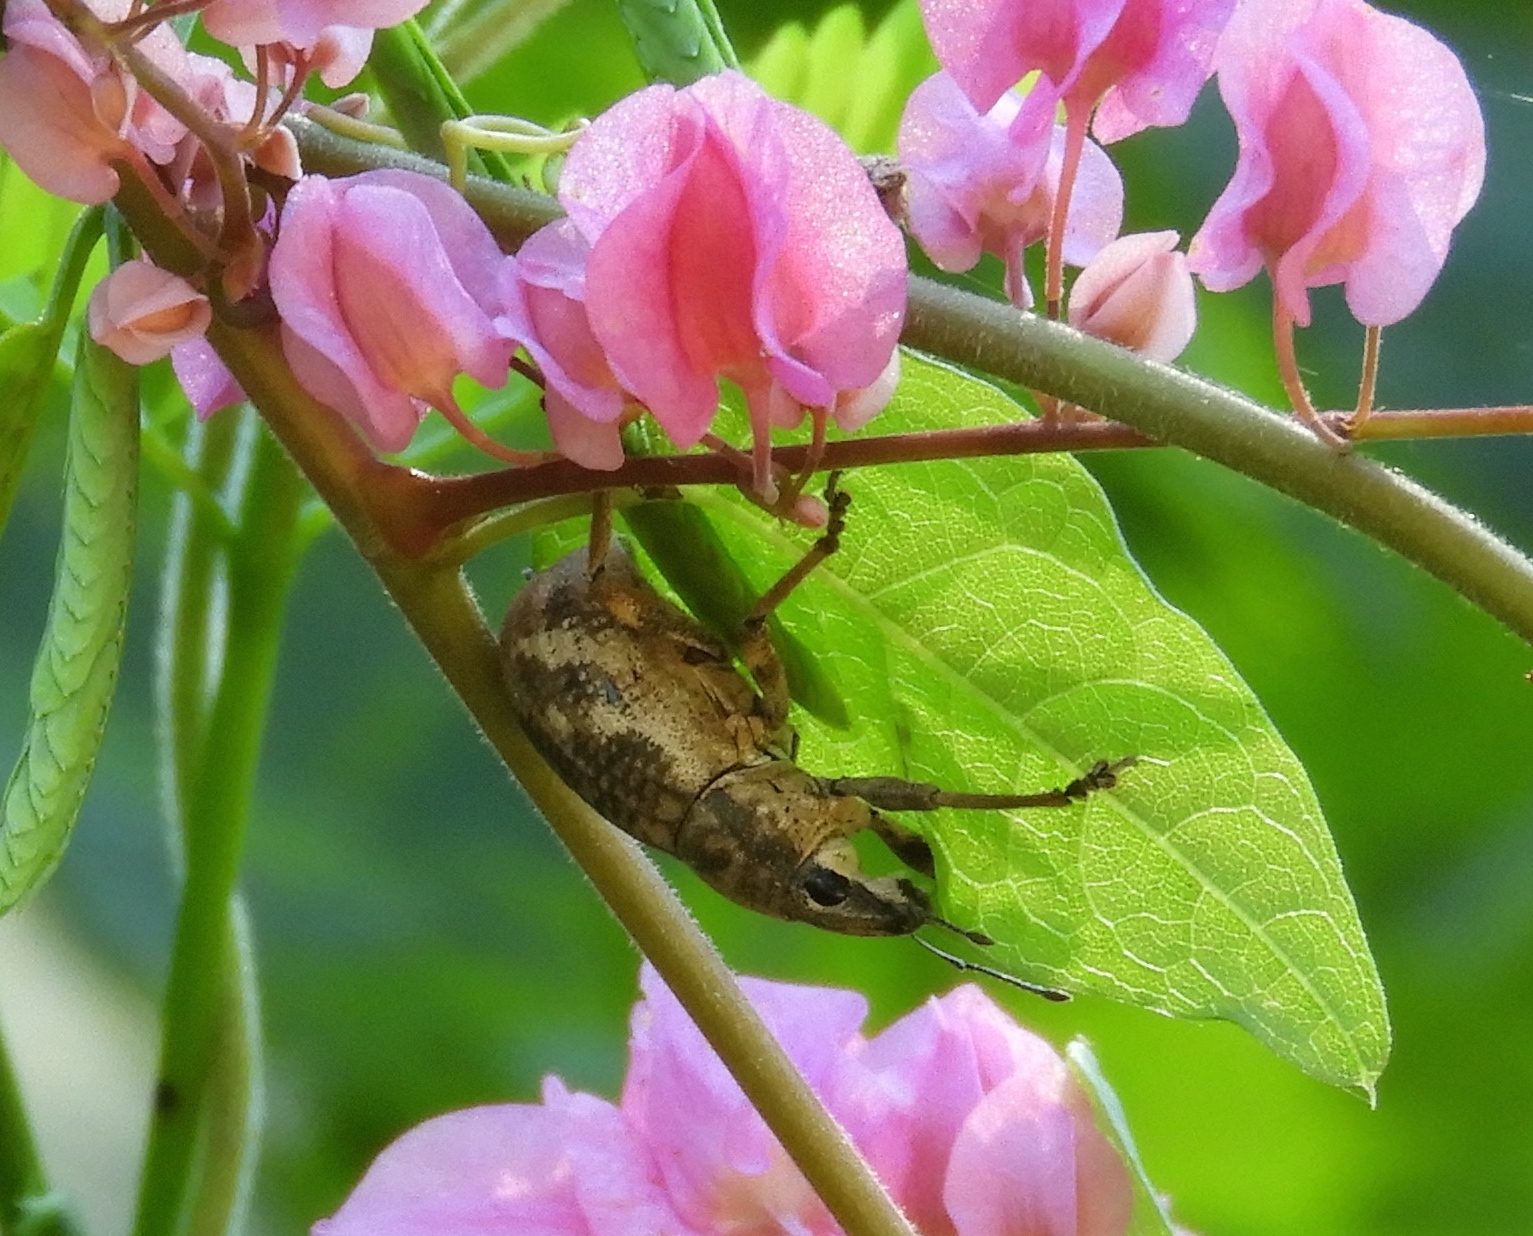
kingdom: Animalia
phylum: Arthropoda
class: Insecta
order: Coleoptera
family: Curculionidae
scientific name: Curculionidae
